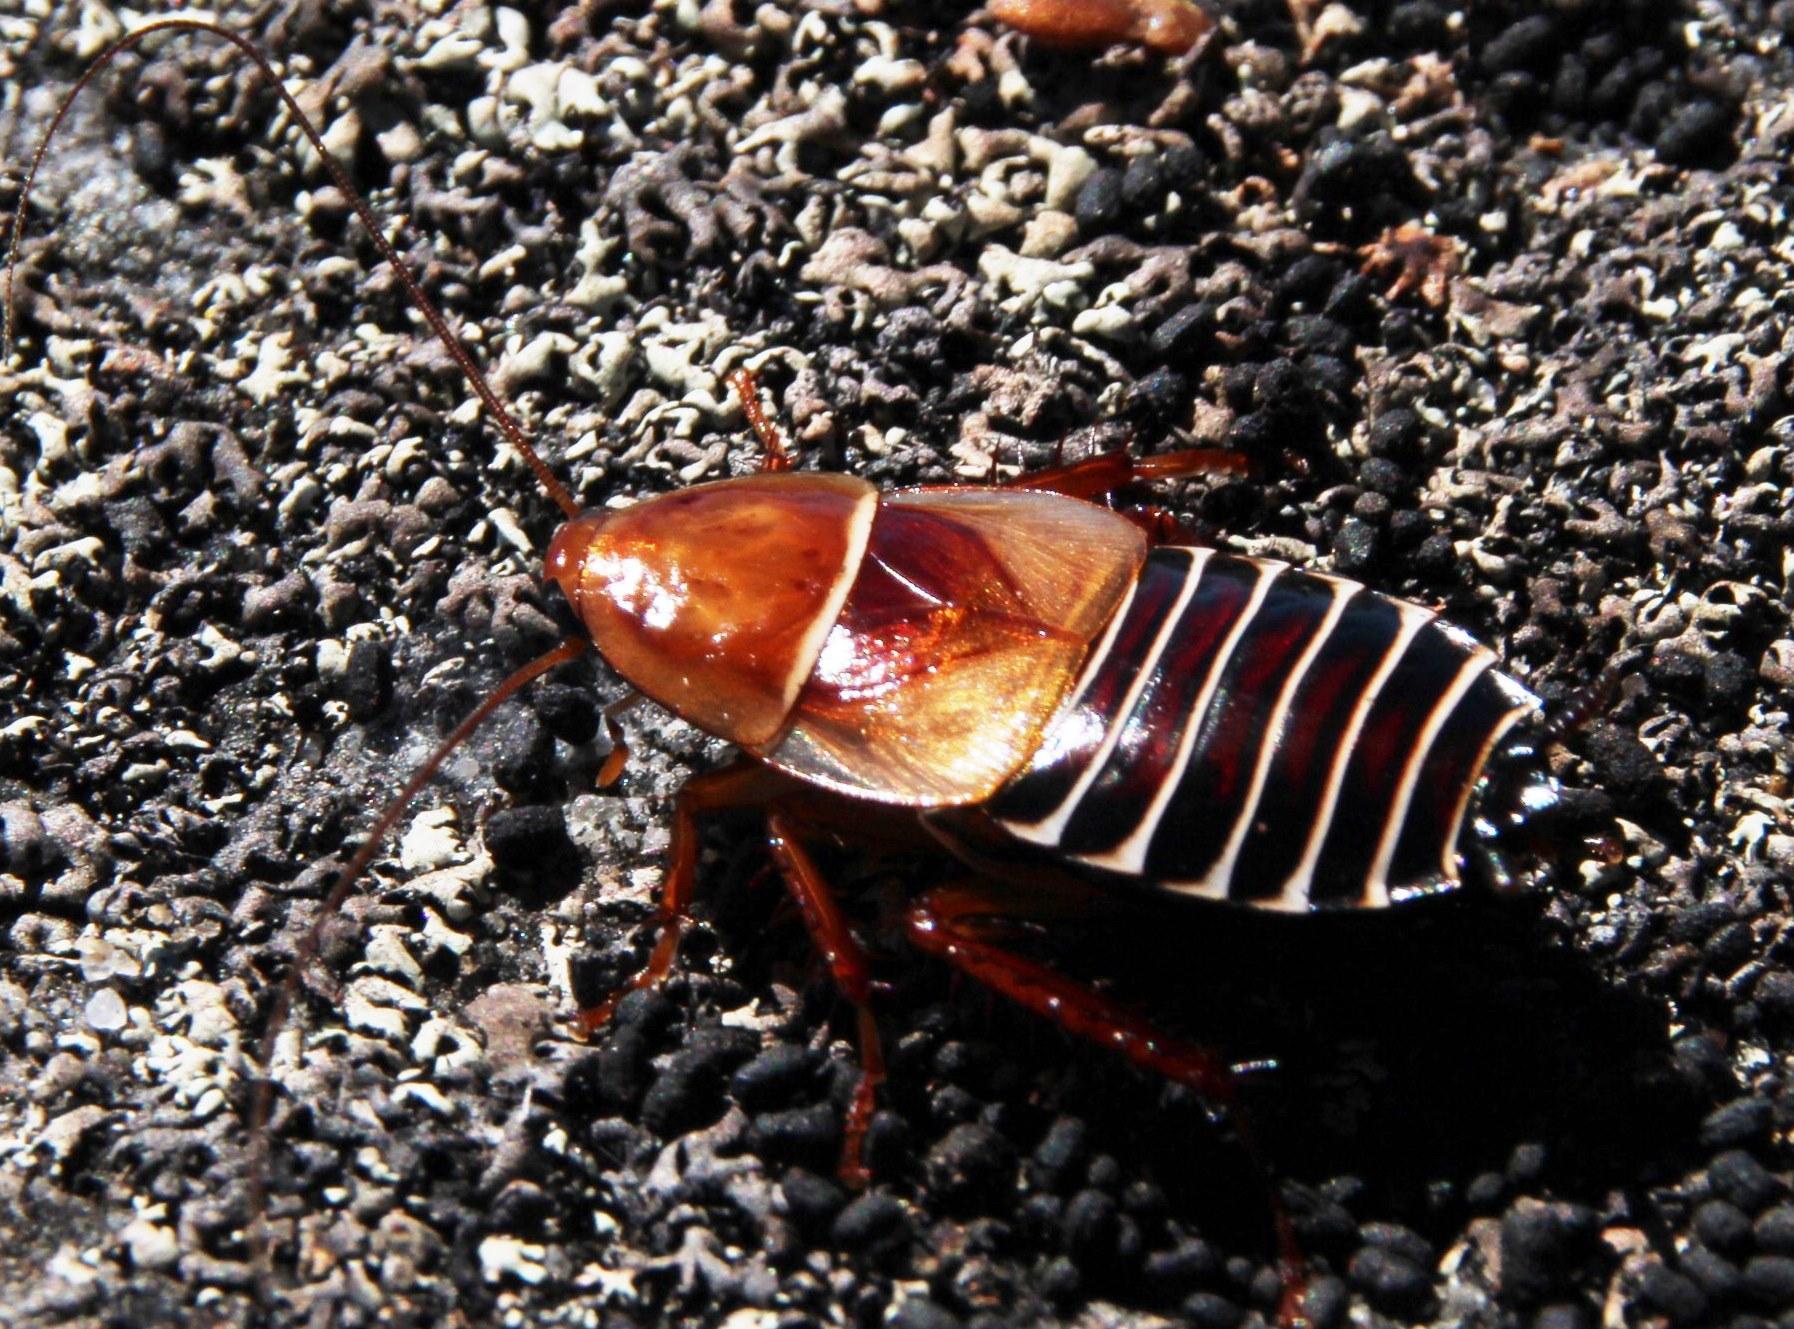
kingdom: Animalia
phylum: Arthropoda
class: Insecta
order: Blattodea
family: Ectobiidae
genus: Temnopteryx
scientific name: Temnopteryx phalerata
